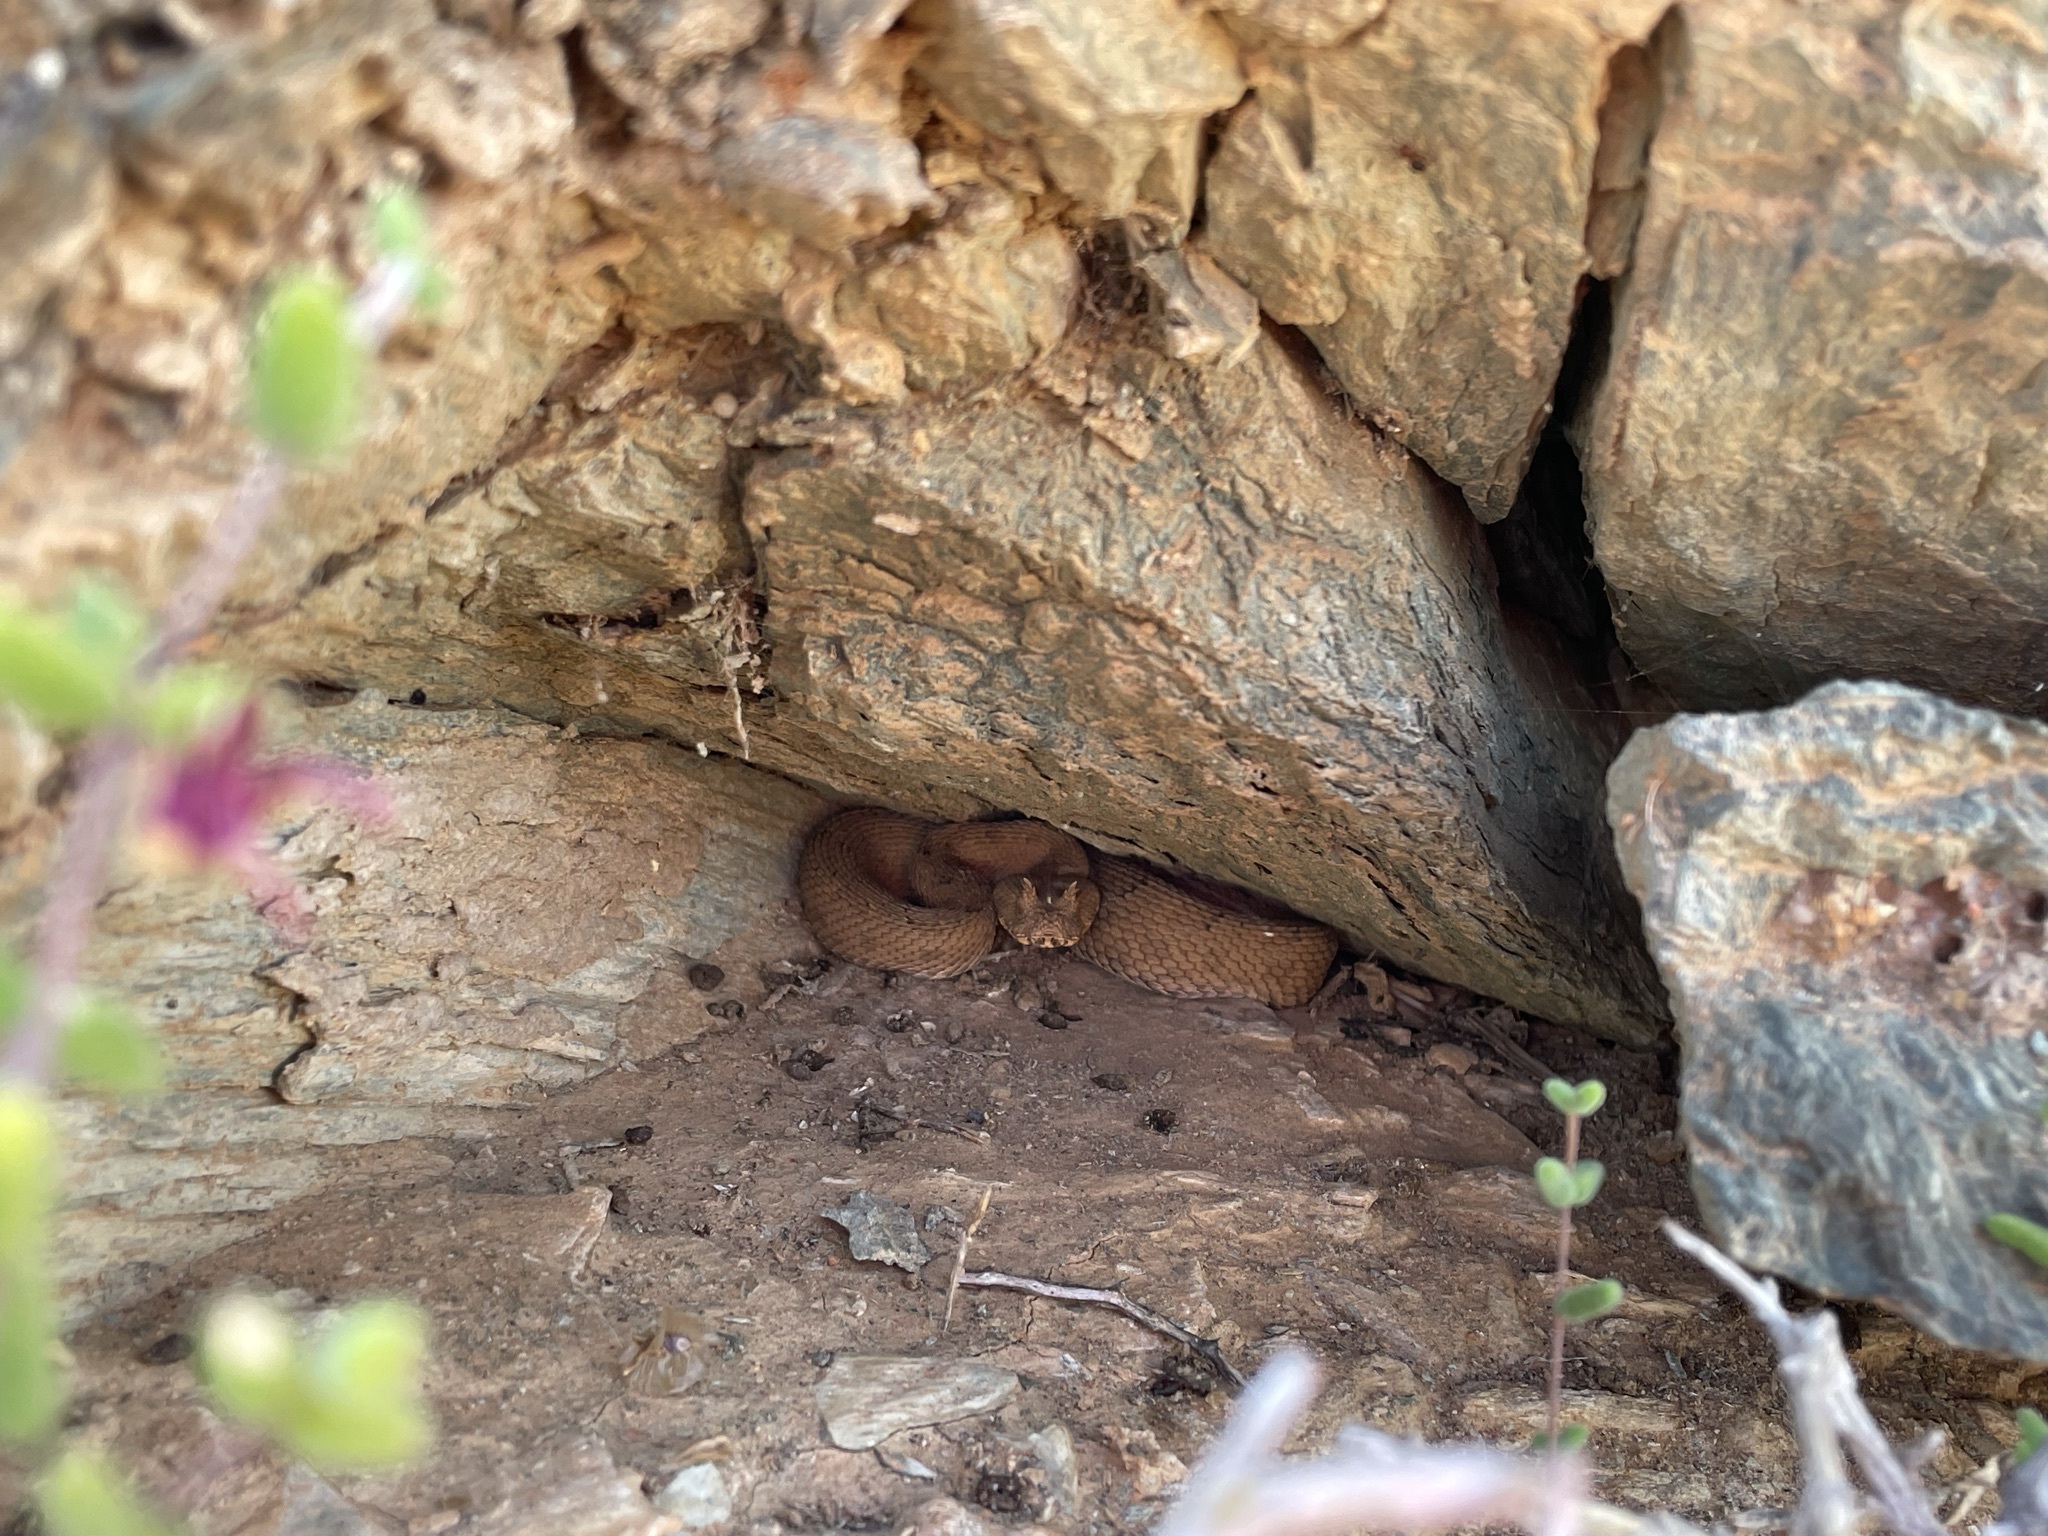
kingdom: Animalia
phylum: Chordata
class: Squamata
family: Viperidae
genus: Bitis
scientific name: Bitis cornuta
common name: Many-horned adder
